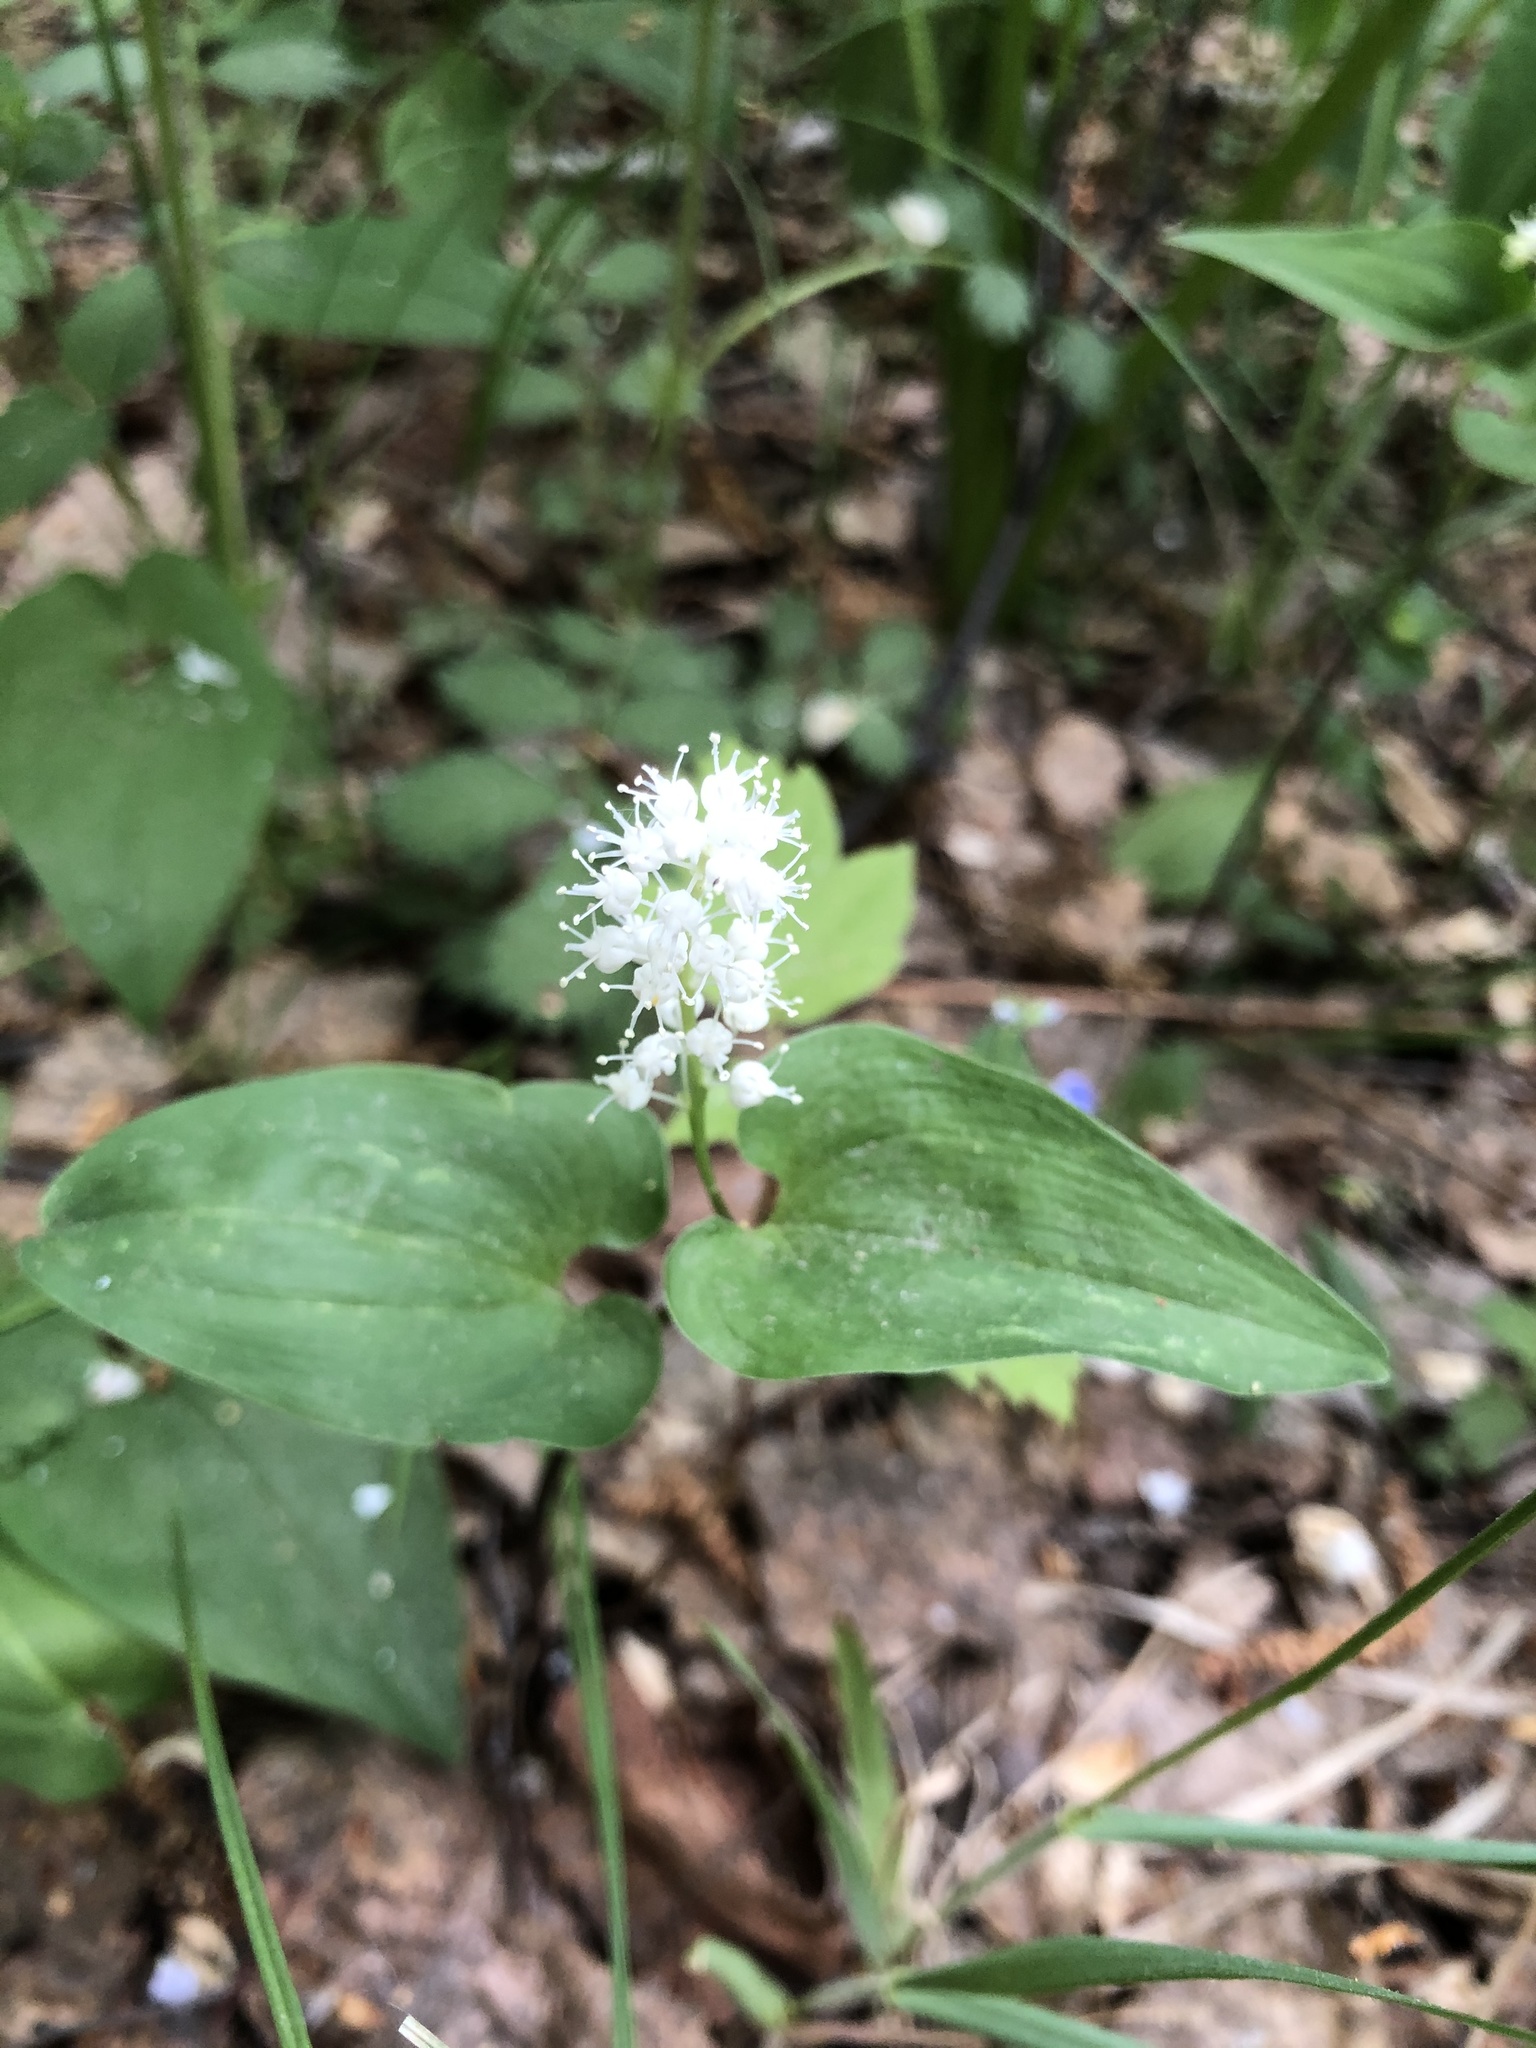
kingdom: Plantae
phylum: Tracheophyta
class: Liliopsida
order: Asparagales
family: Asparagaceae
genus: Maianthemum
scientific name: Maianthemum bifolium
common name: May lily
